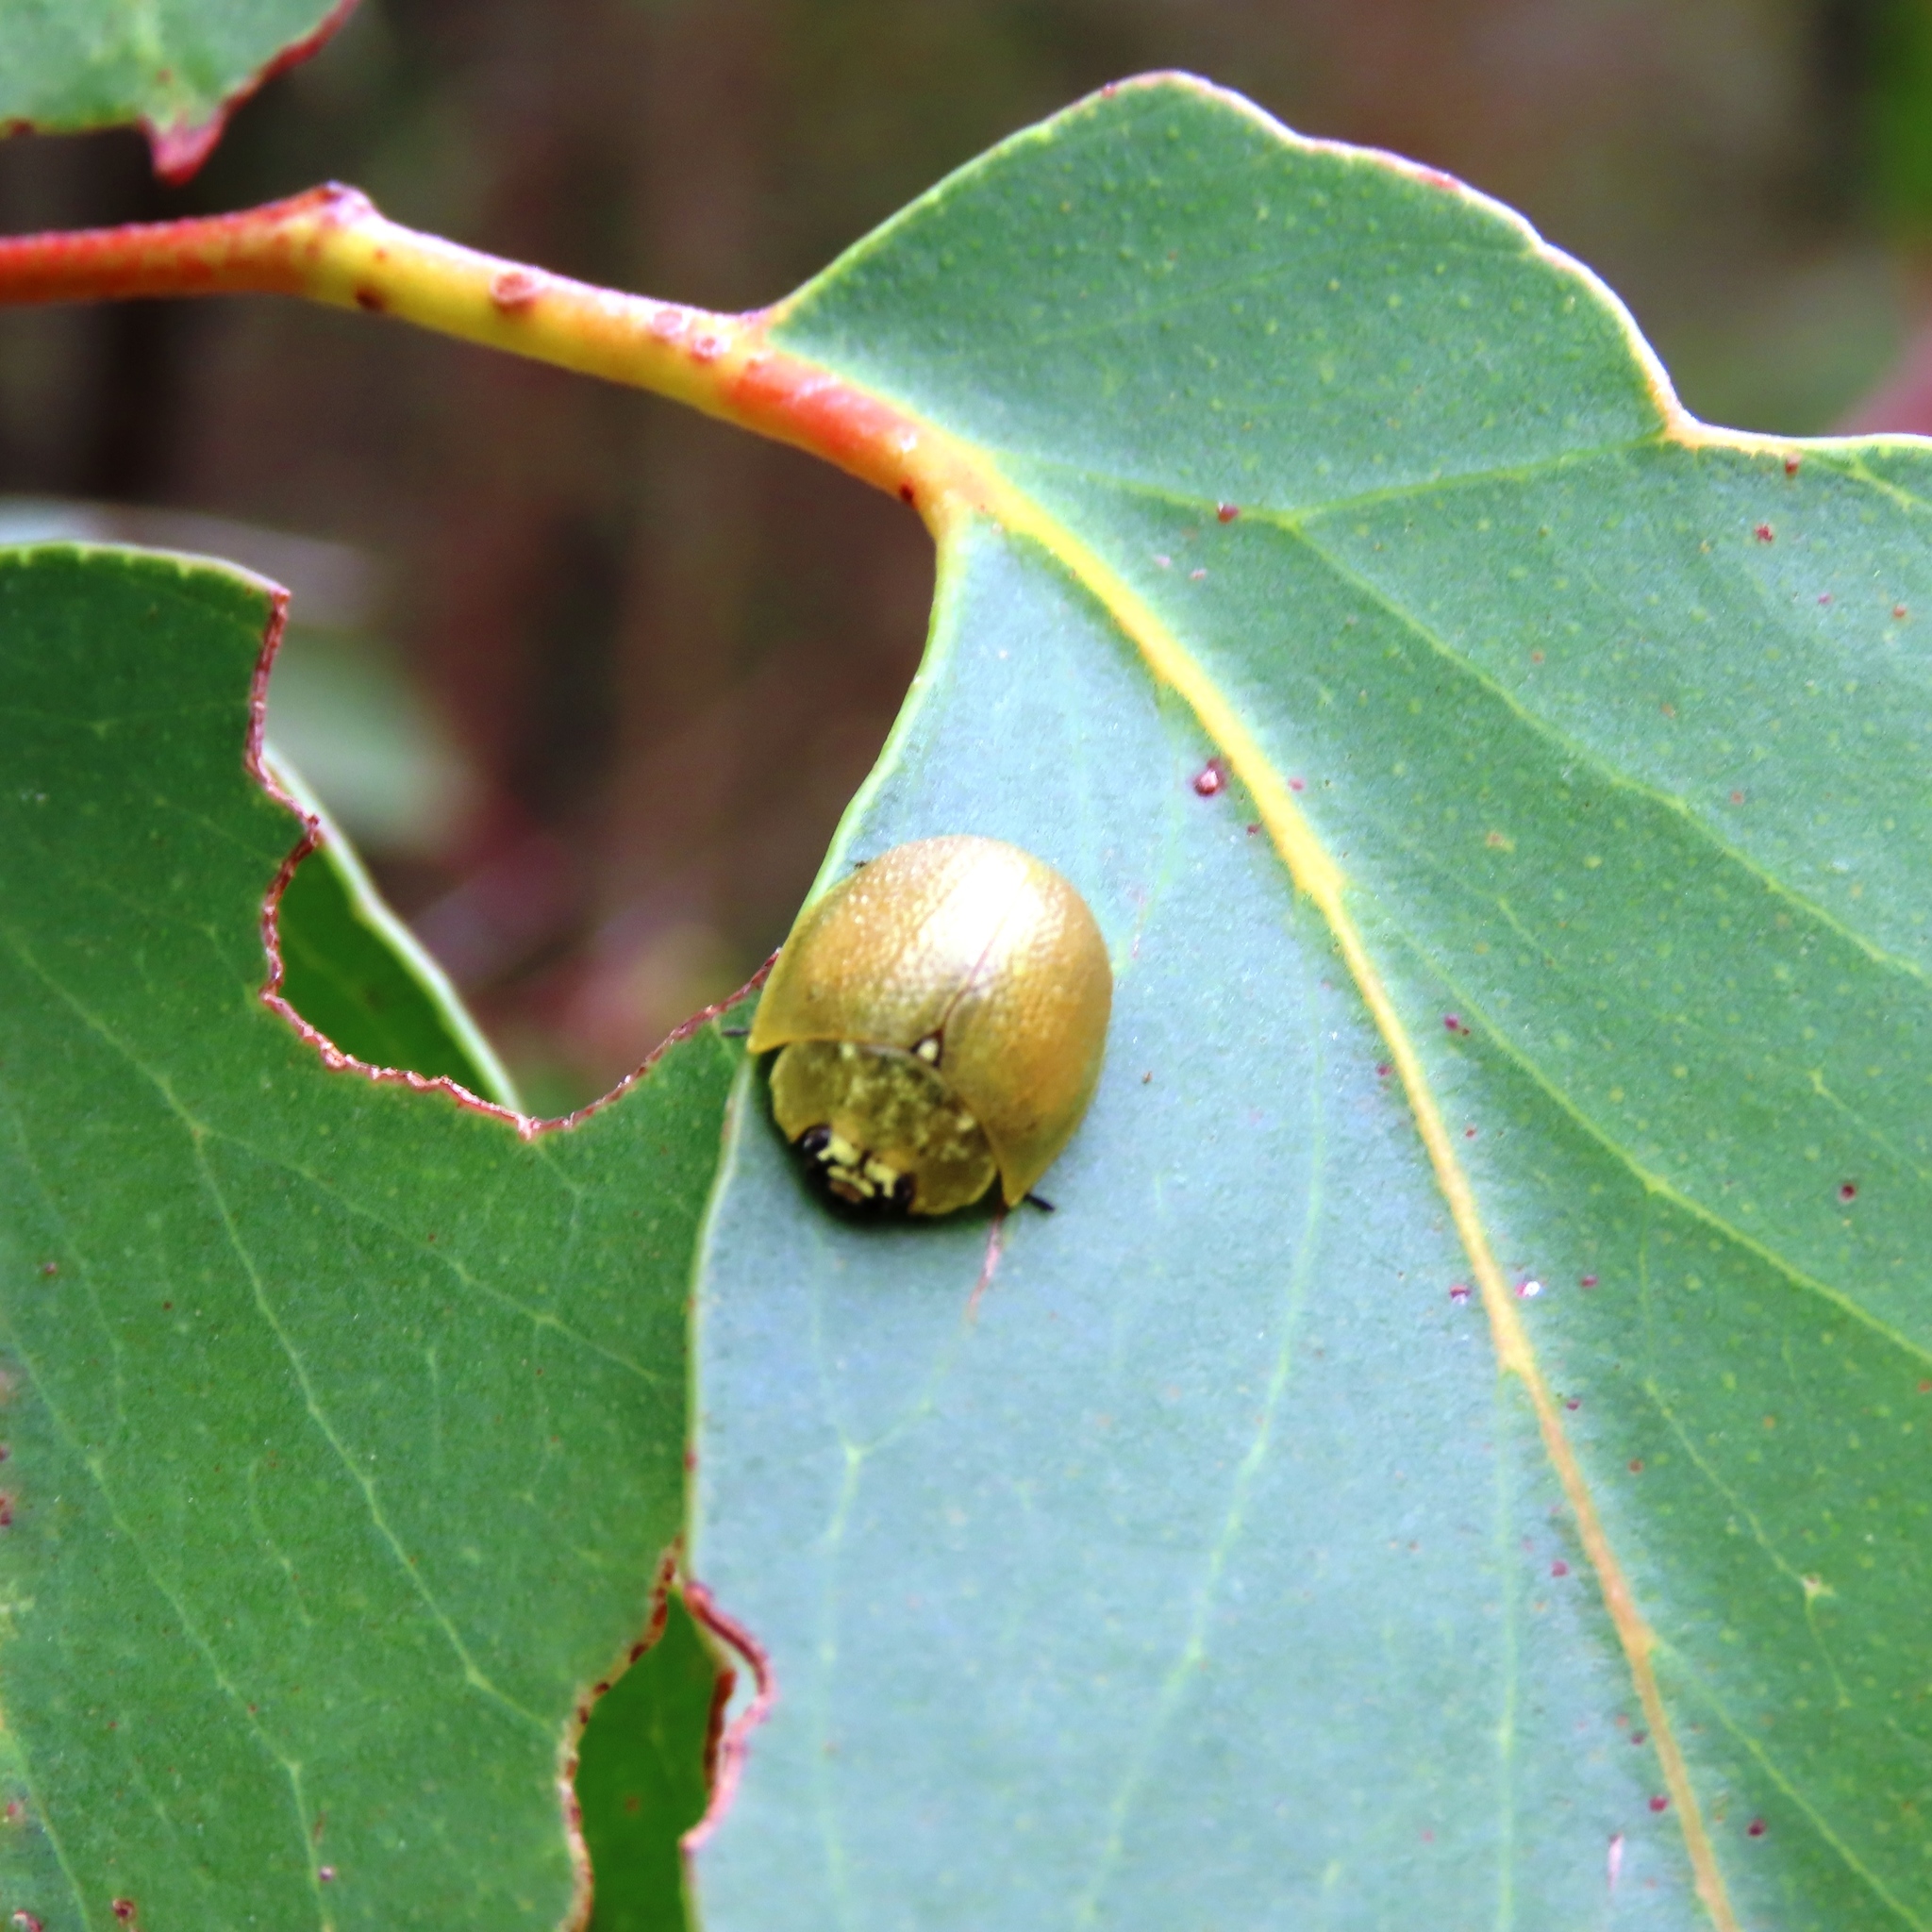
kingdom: Animalia
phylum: Arthropoda
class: Insecta
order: Coleoptera
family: Chrysomelidae
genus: Paropsis
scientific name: Paropsis
